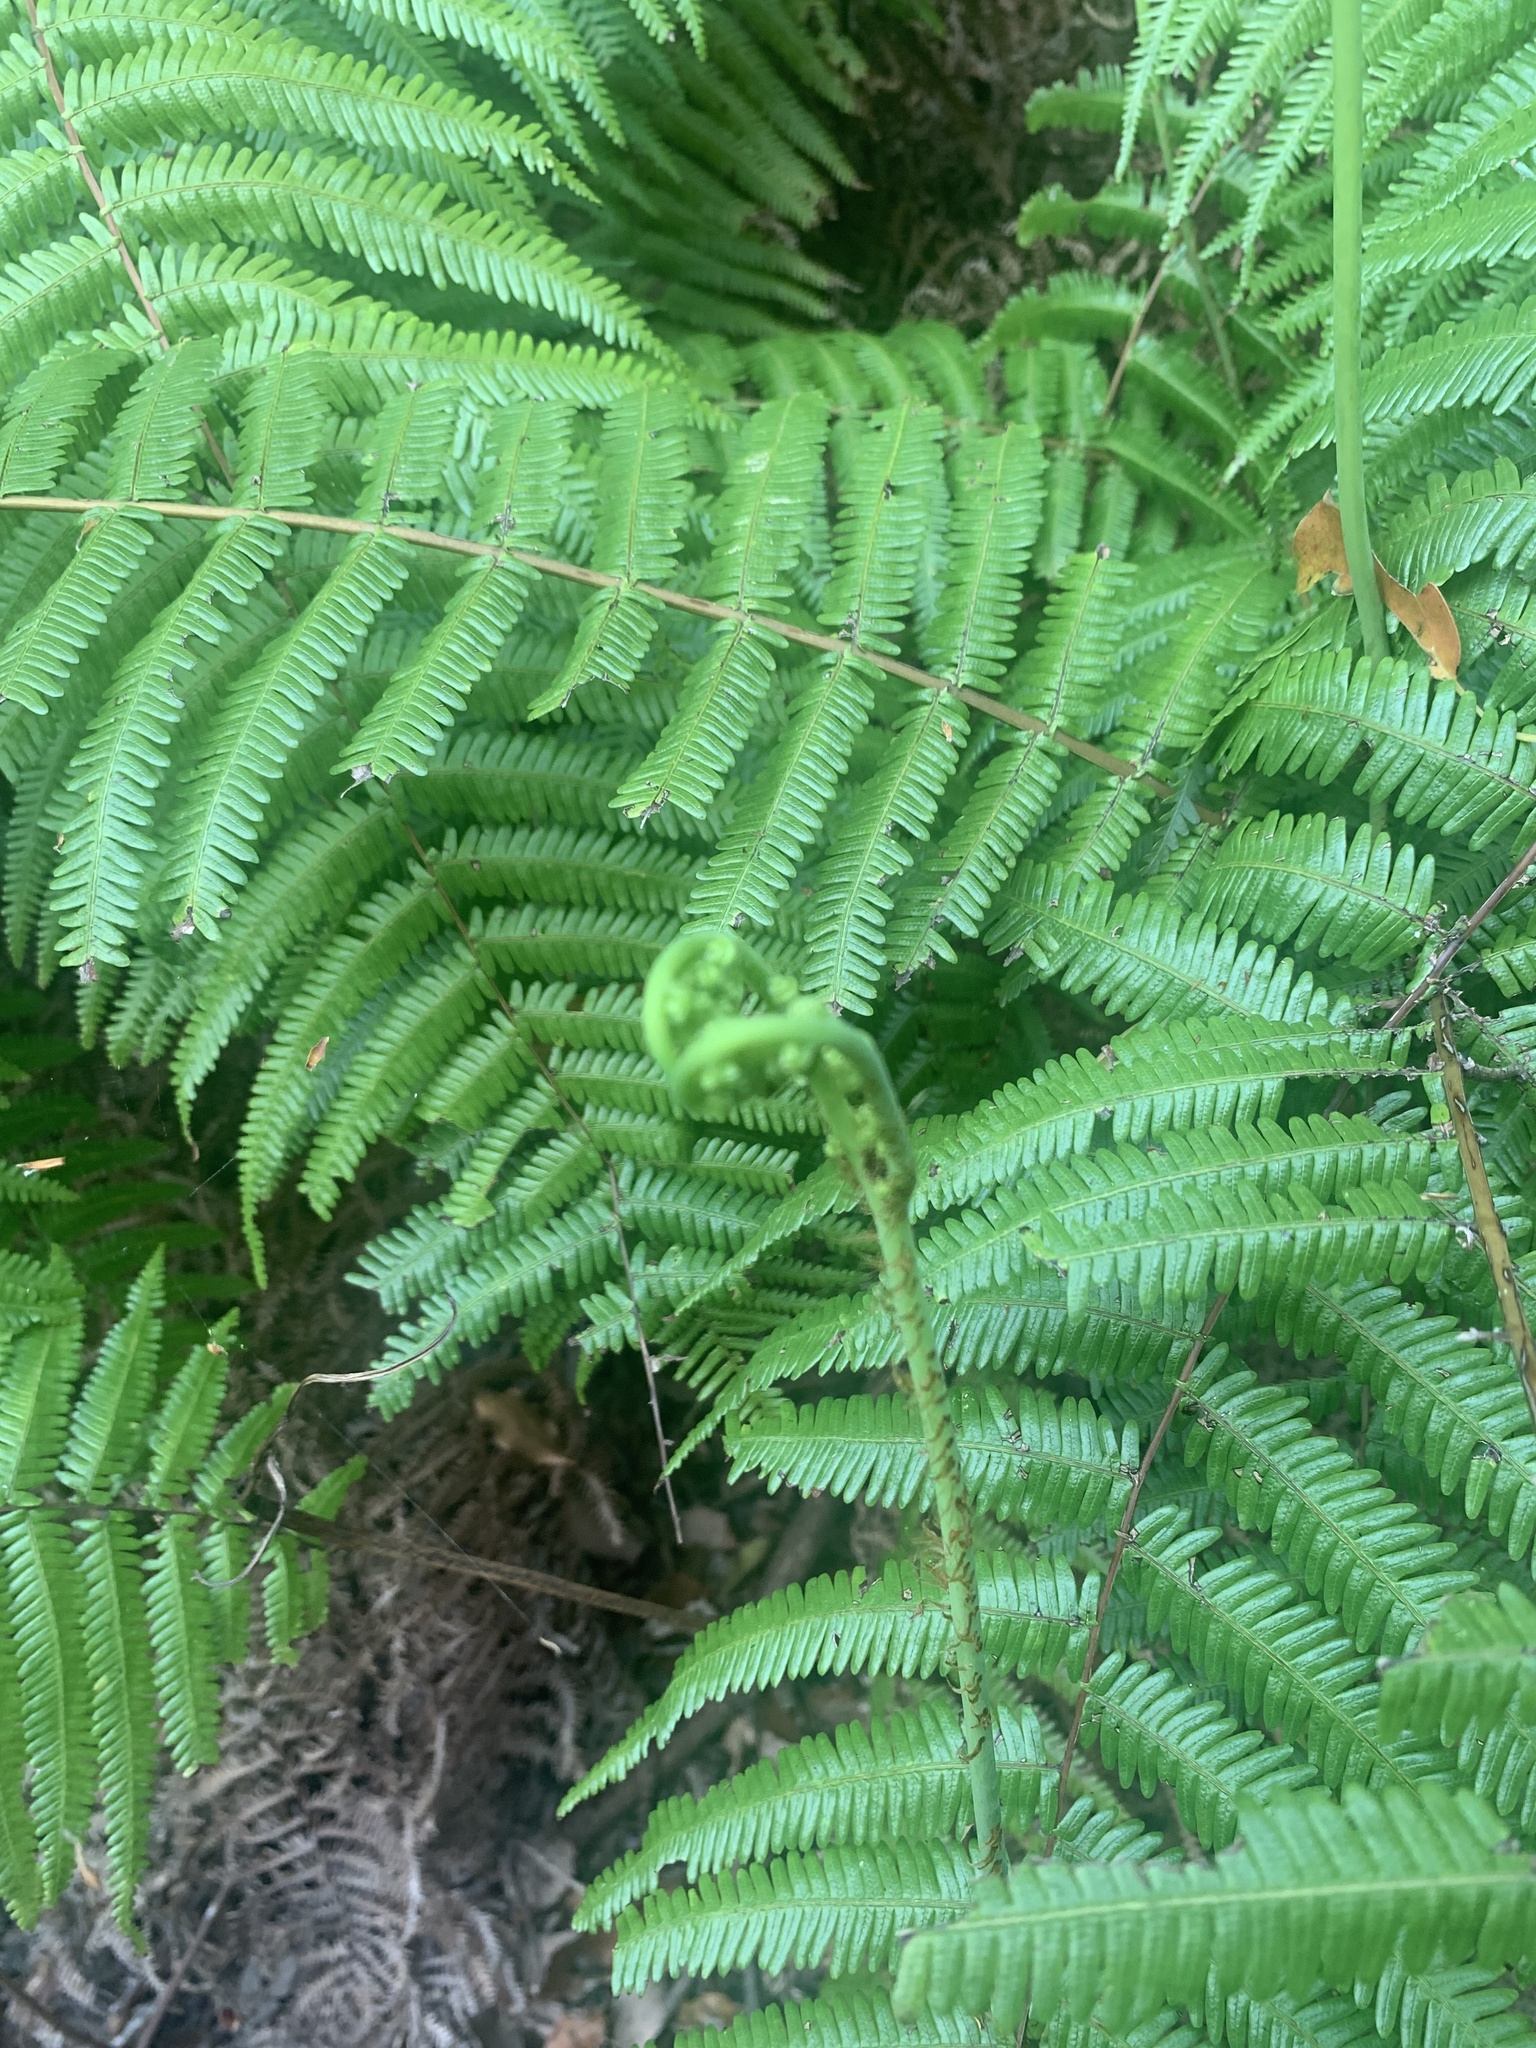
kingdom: Plantae
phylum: Tracheophyta
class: Polypodiopsida
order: Gleicheniales
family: Gleicheniaceae
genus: Diplopterygium
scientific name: Diplopterygium glaucum
